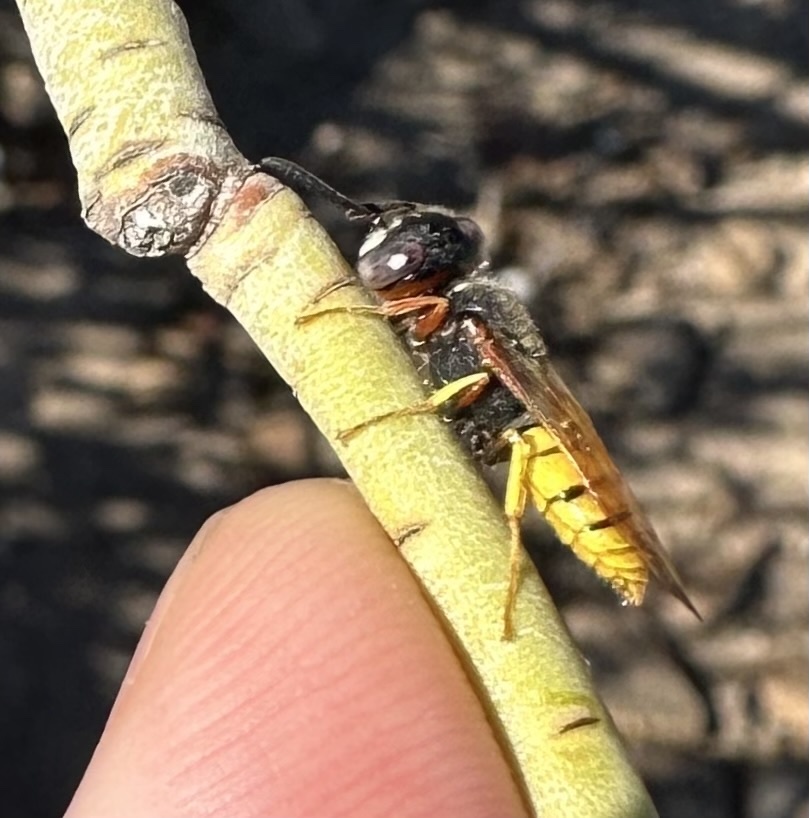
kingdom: Animalia
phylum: Arthropoda
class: Insecta
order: Hymenoptera
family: Crabronidae
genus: Philanthus
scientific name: Philanthus triangulum
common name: Bee wolf
